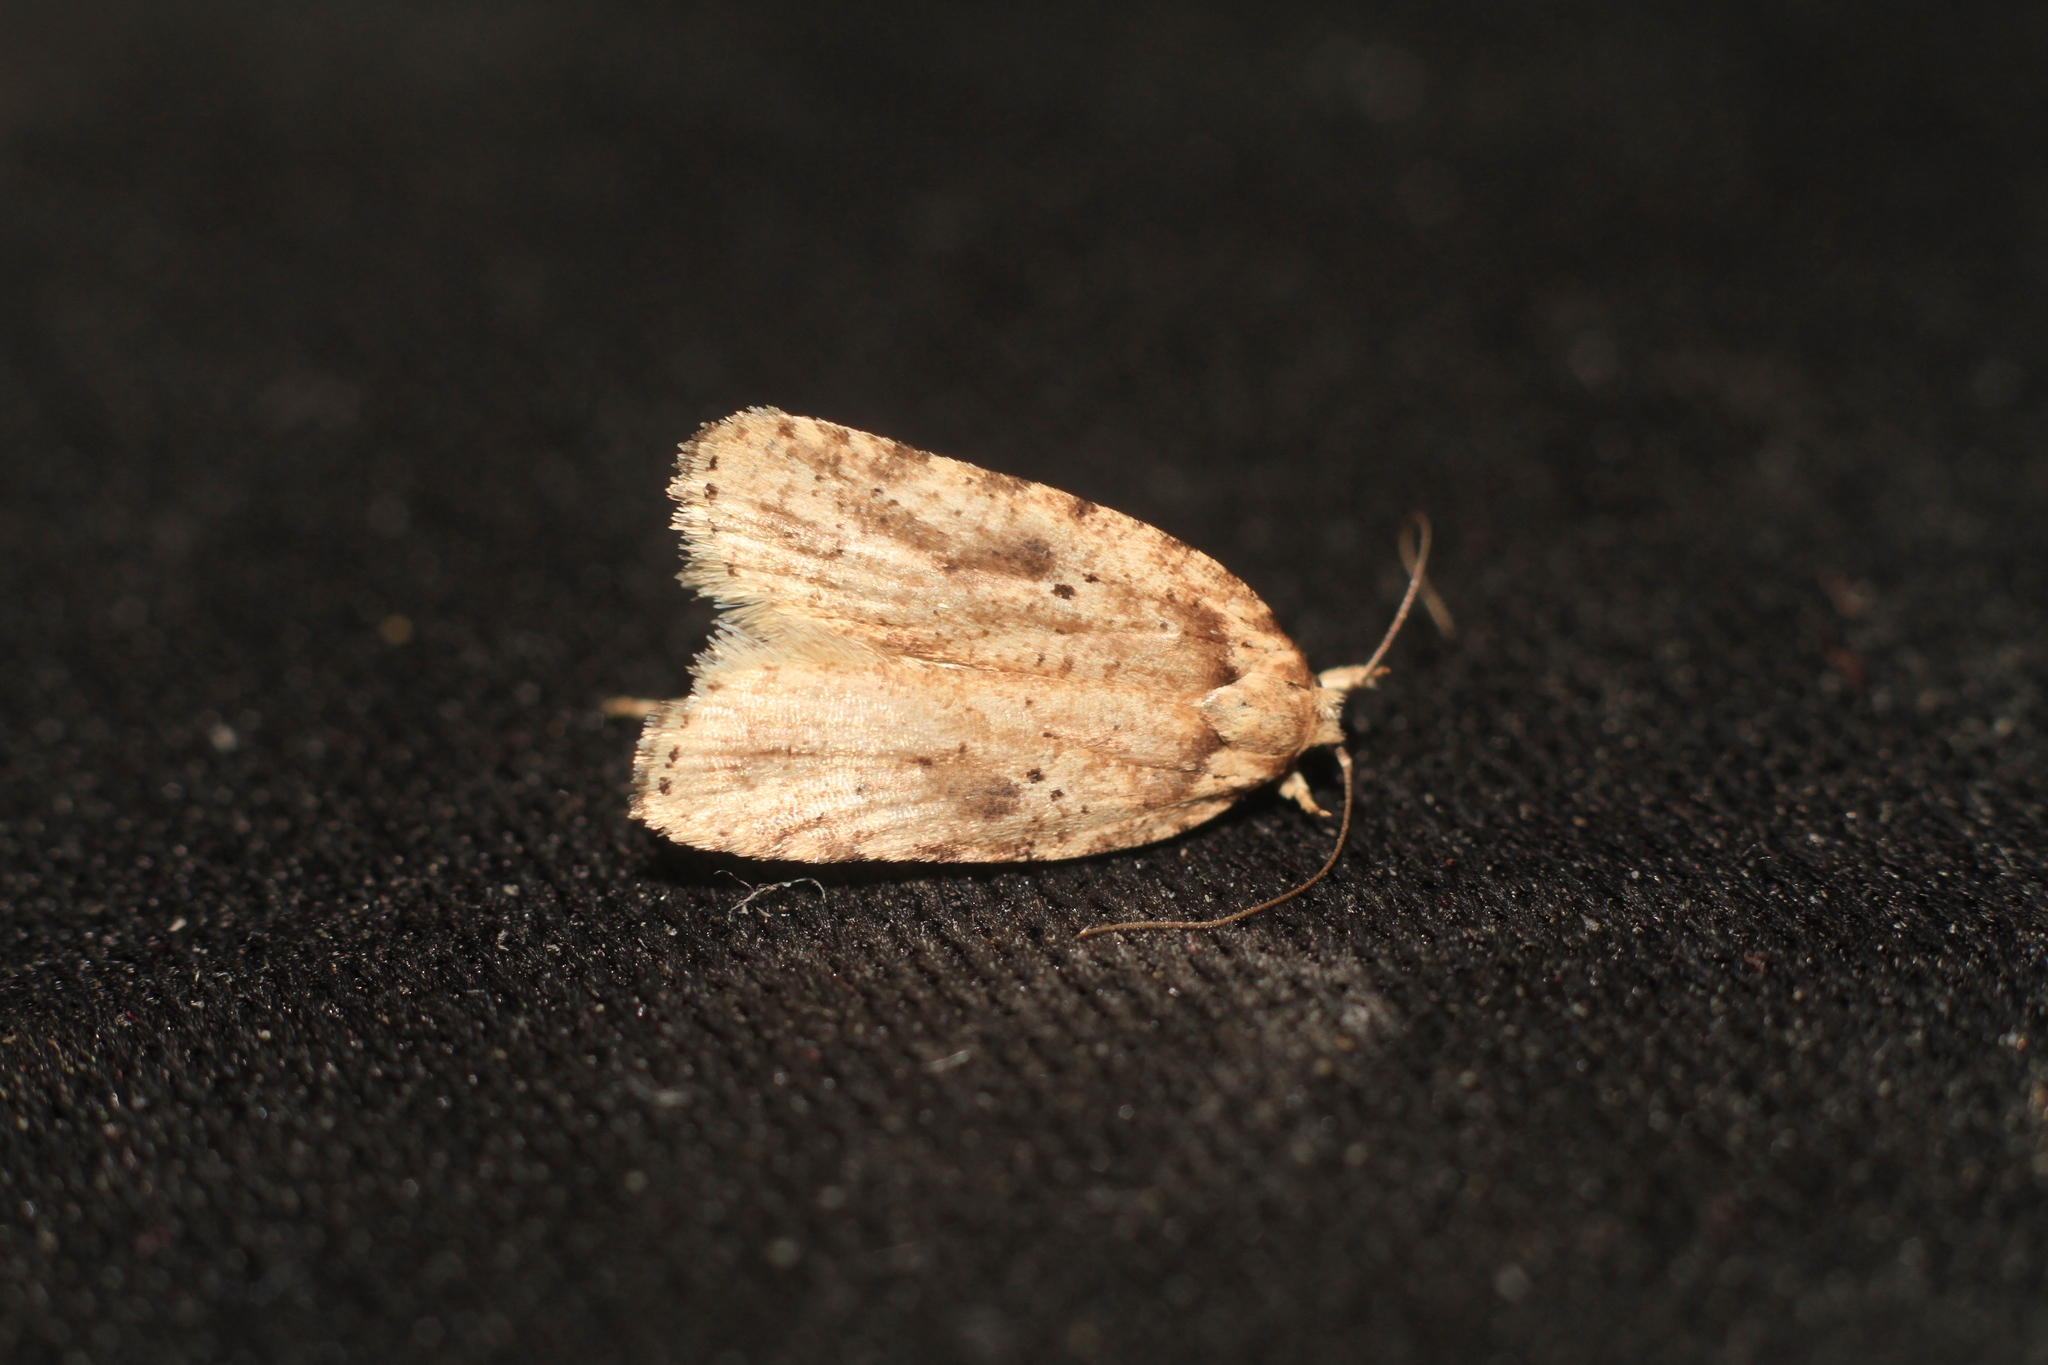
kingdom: Animalia
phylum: Arthropoda
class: Insecta
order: Lepidoptera
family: Depressariidae
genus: Agonopterix
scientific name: Agonopterix arenella
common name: Brindled flat-body
